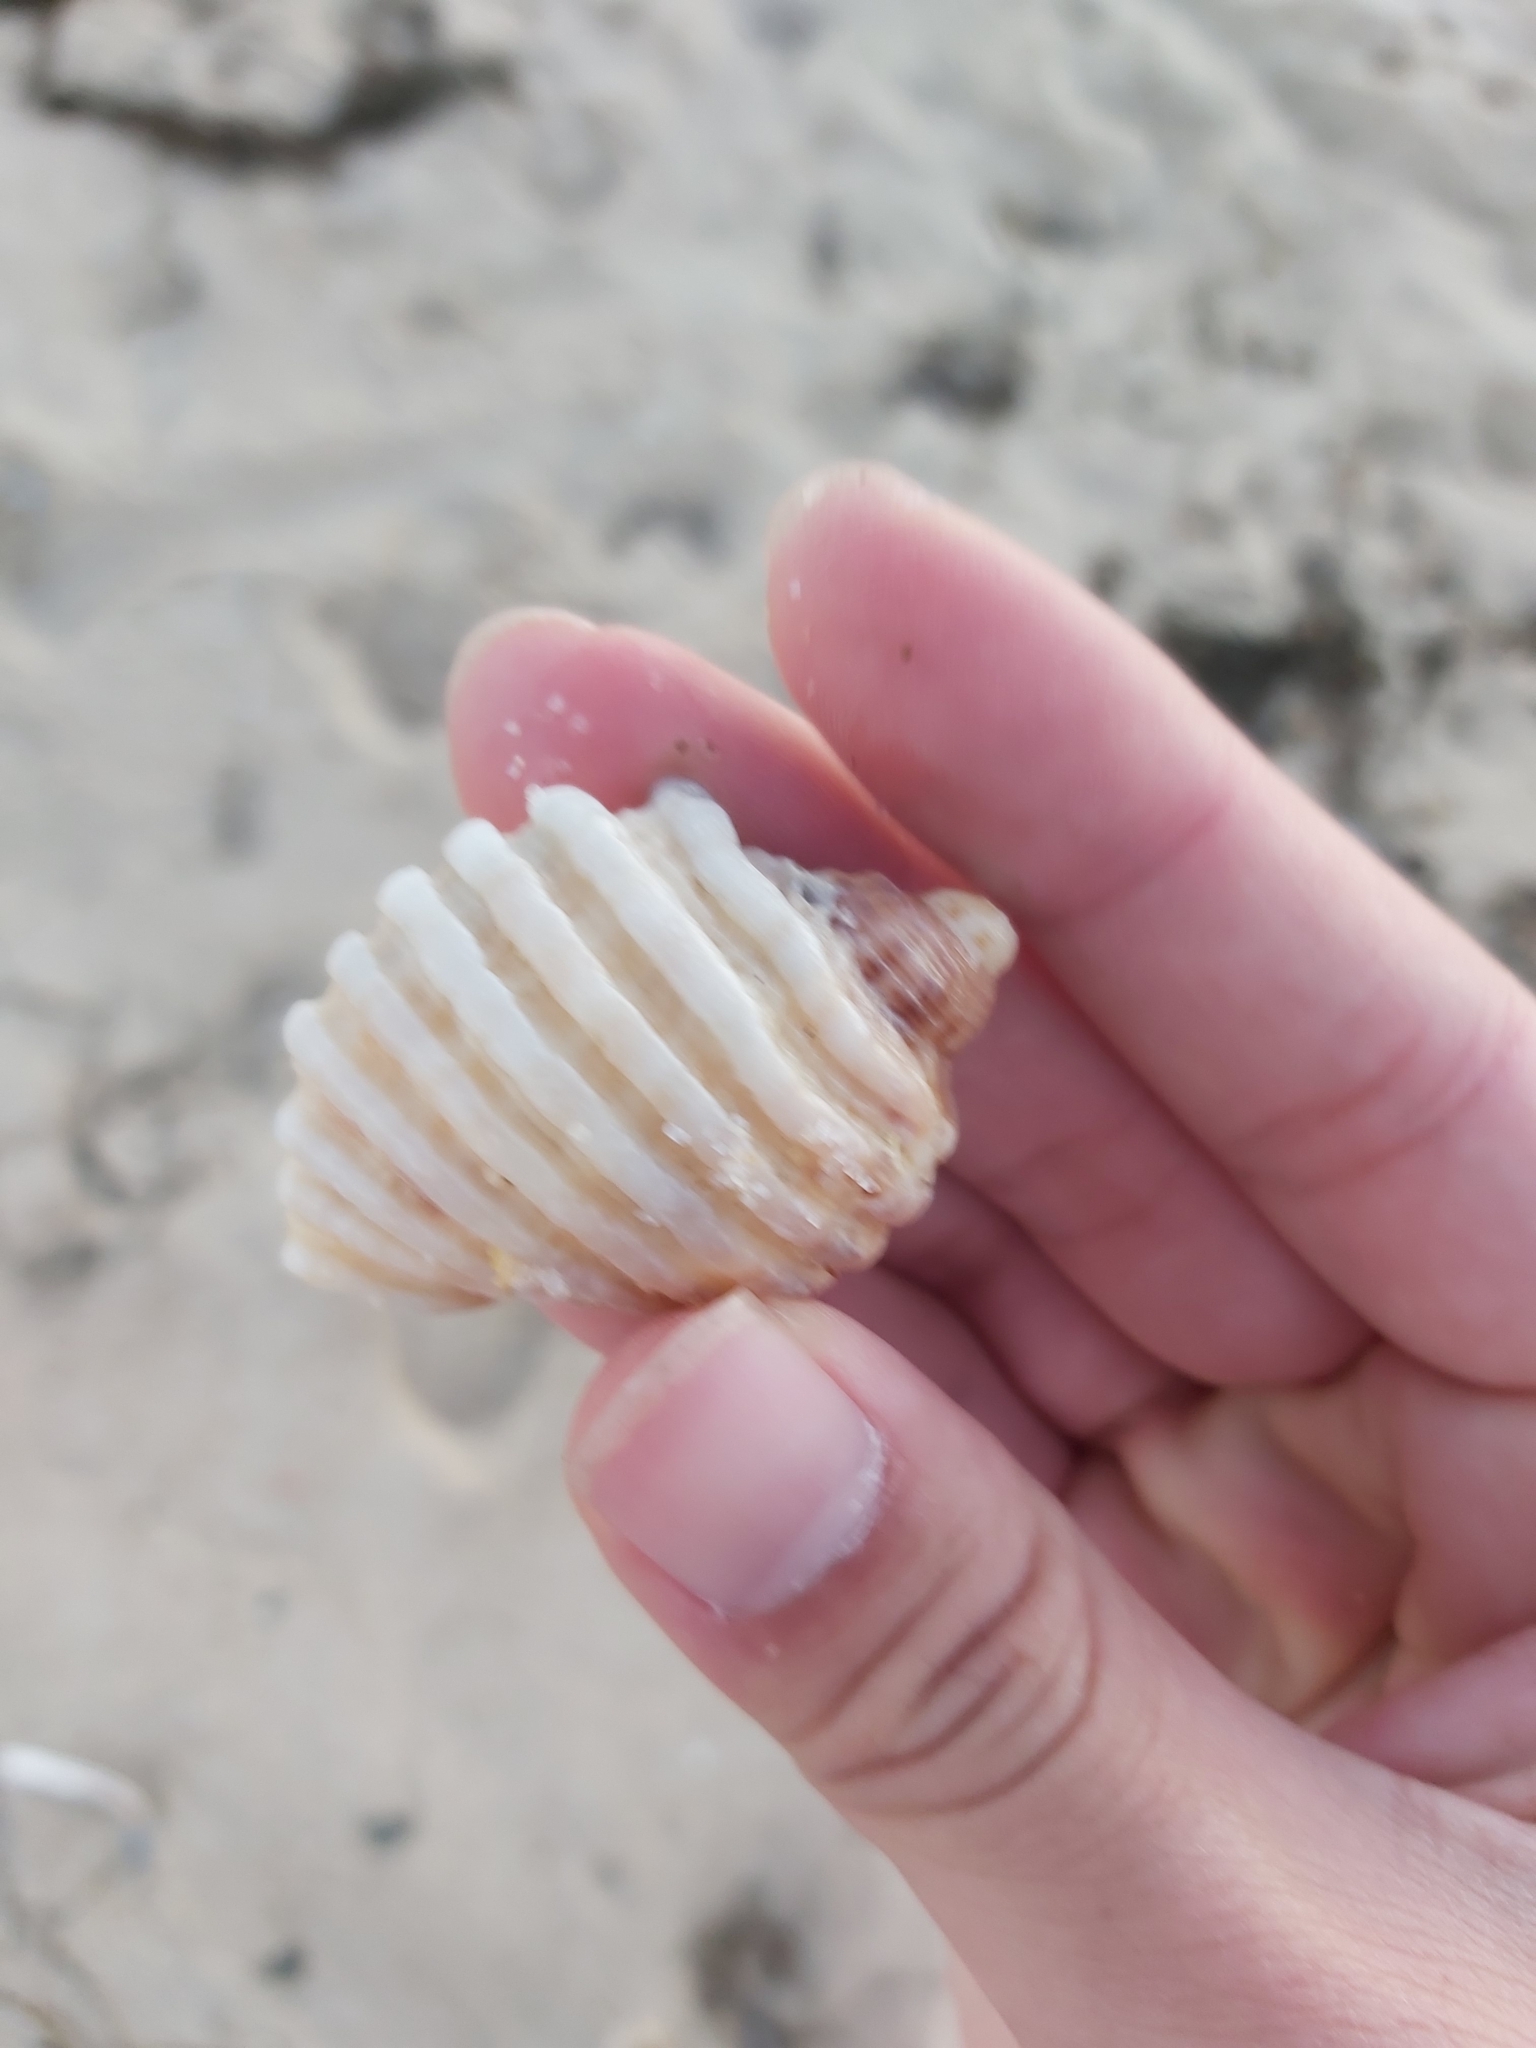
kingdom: Animalia
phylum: Mollusca
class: Gastropoda
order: Neogastropoda
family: Muricidae
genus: Dicathais
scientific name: Dicathais orbita
